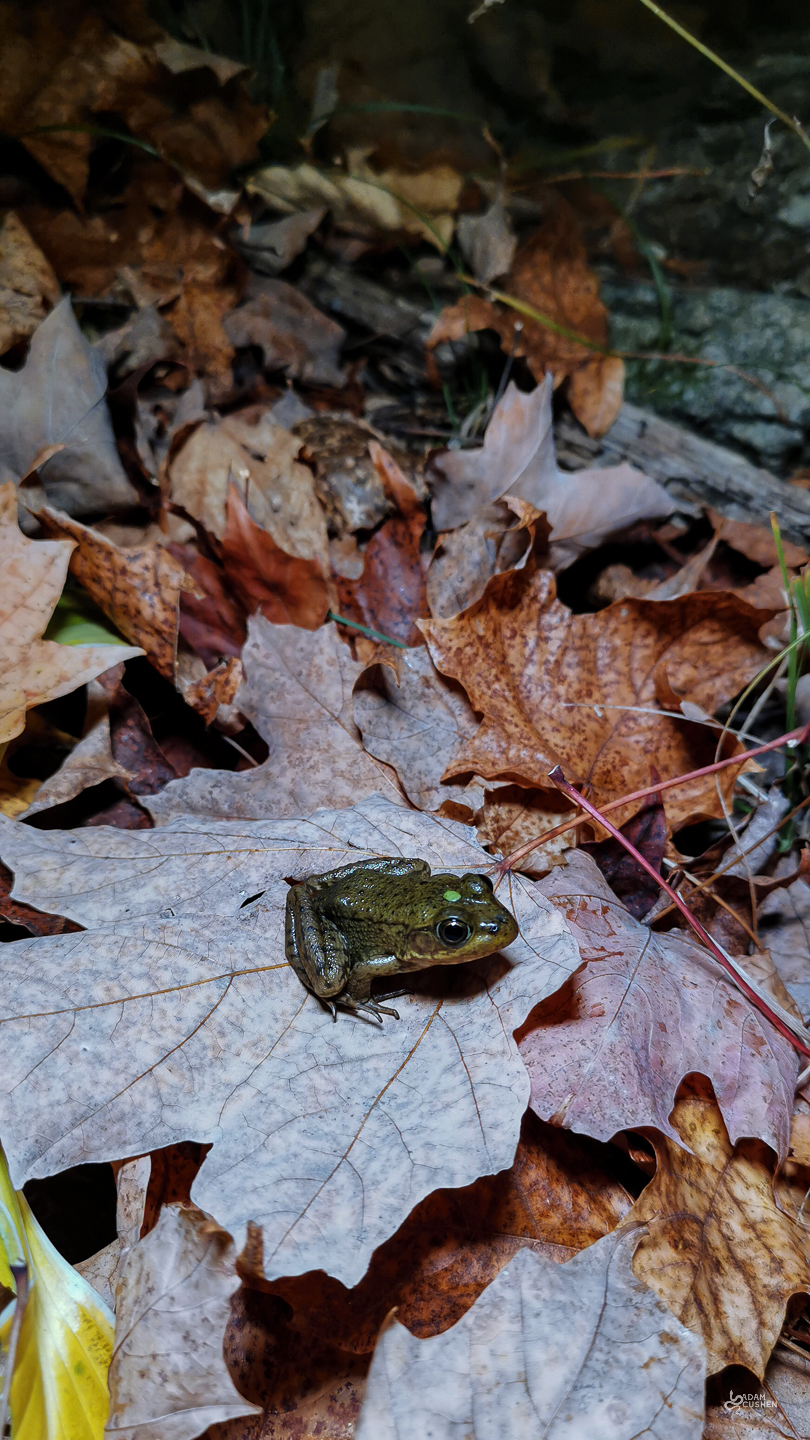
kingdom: Animalia
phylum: Chordata
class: Amphibia
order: Anura
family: Ranidae
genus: Lithobates
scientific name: Lithobates clamitans
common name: Green frog
